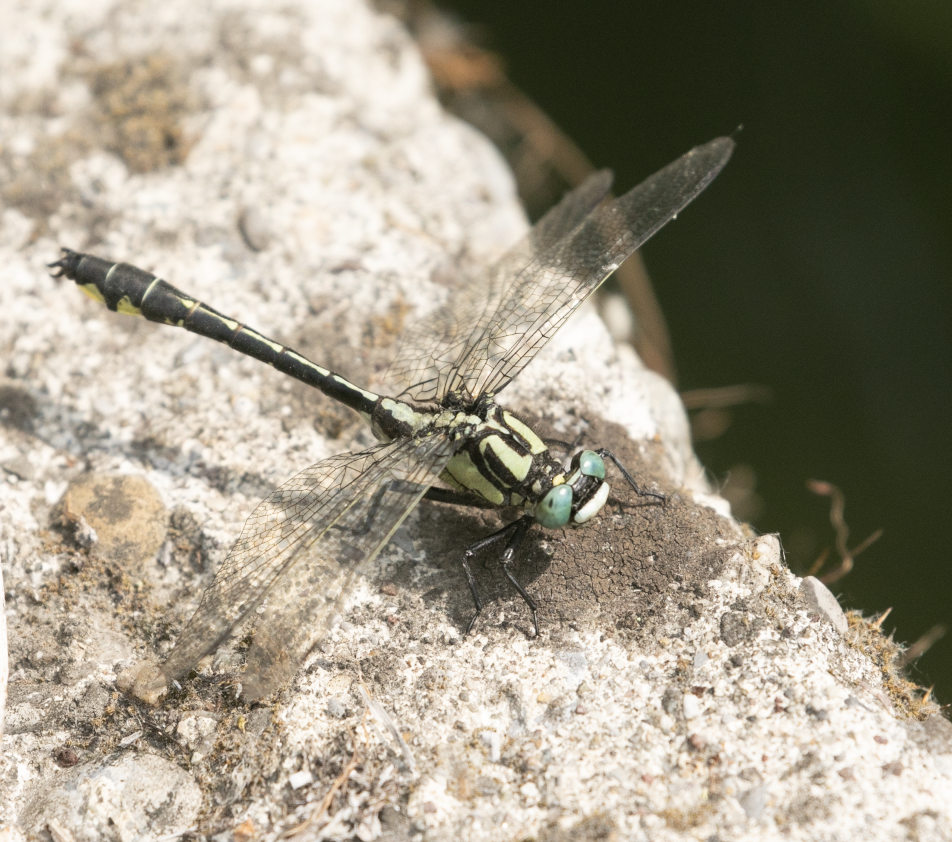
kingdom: Animalia
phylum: Arthropoda
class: Insecta
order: Odonata
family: Gomphidae
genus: Gomphus
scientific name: Gomphus vulgatissimus
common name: Club-tailed dragonfly
